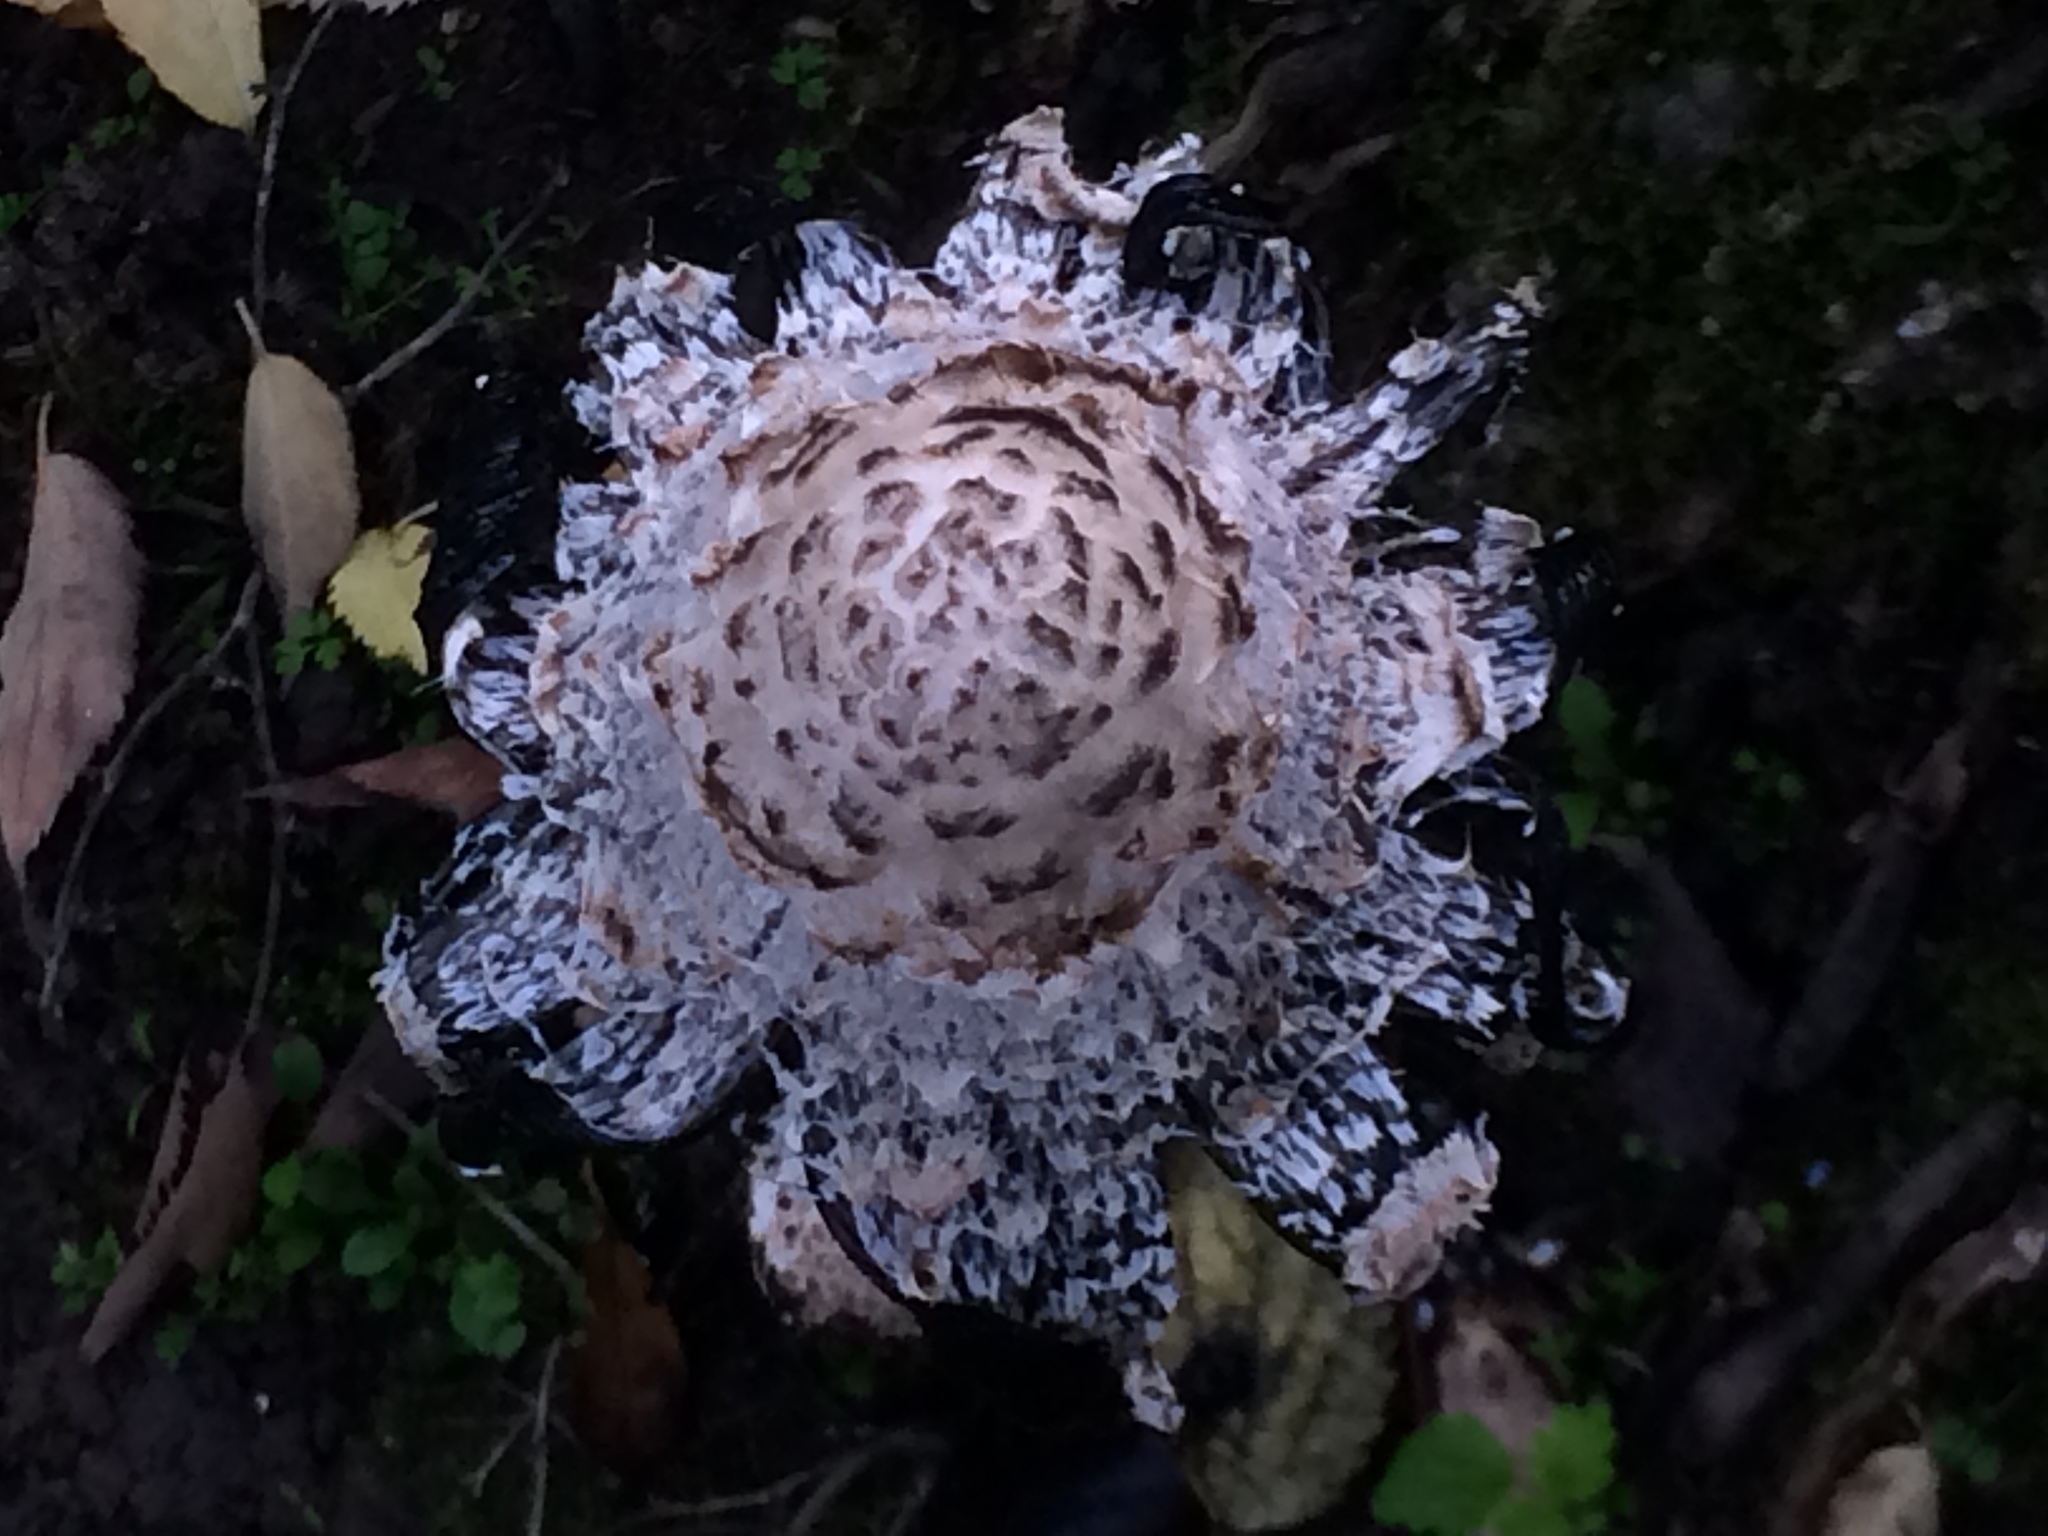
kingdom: Fungi
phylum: Basidiomycota
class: Agaricomycetes
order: Agaricales
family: Agaricaceae
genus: Coprinus
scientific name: Coprinus comatus
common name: Lawyer's wig
